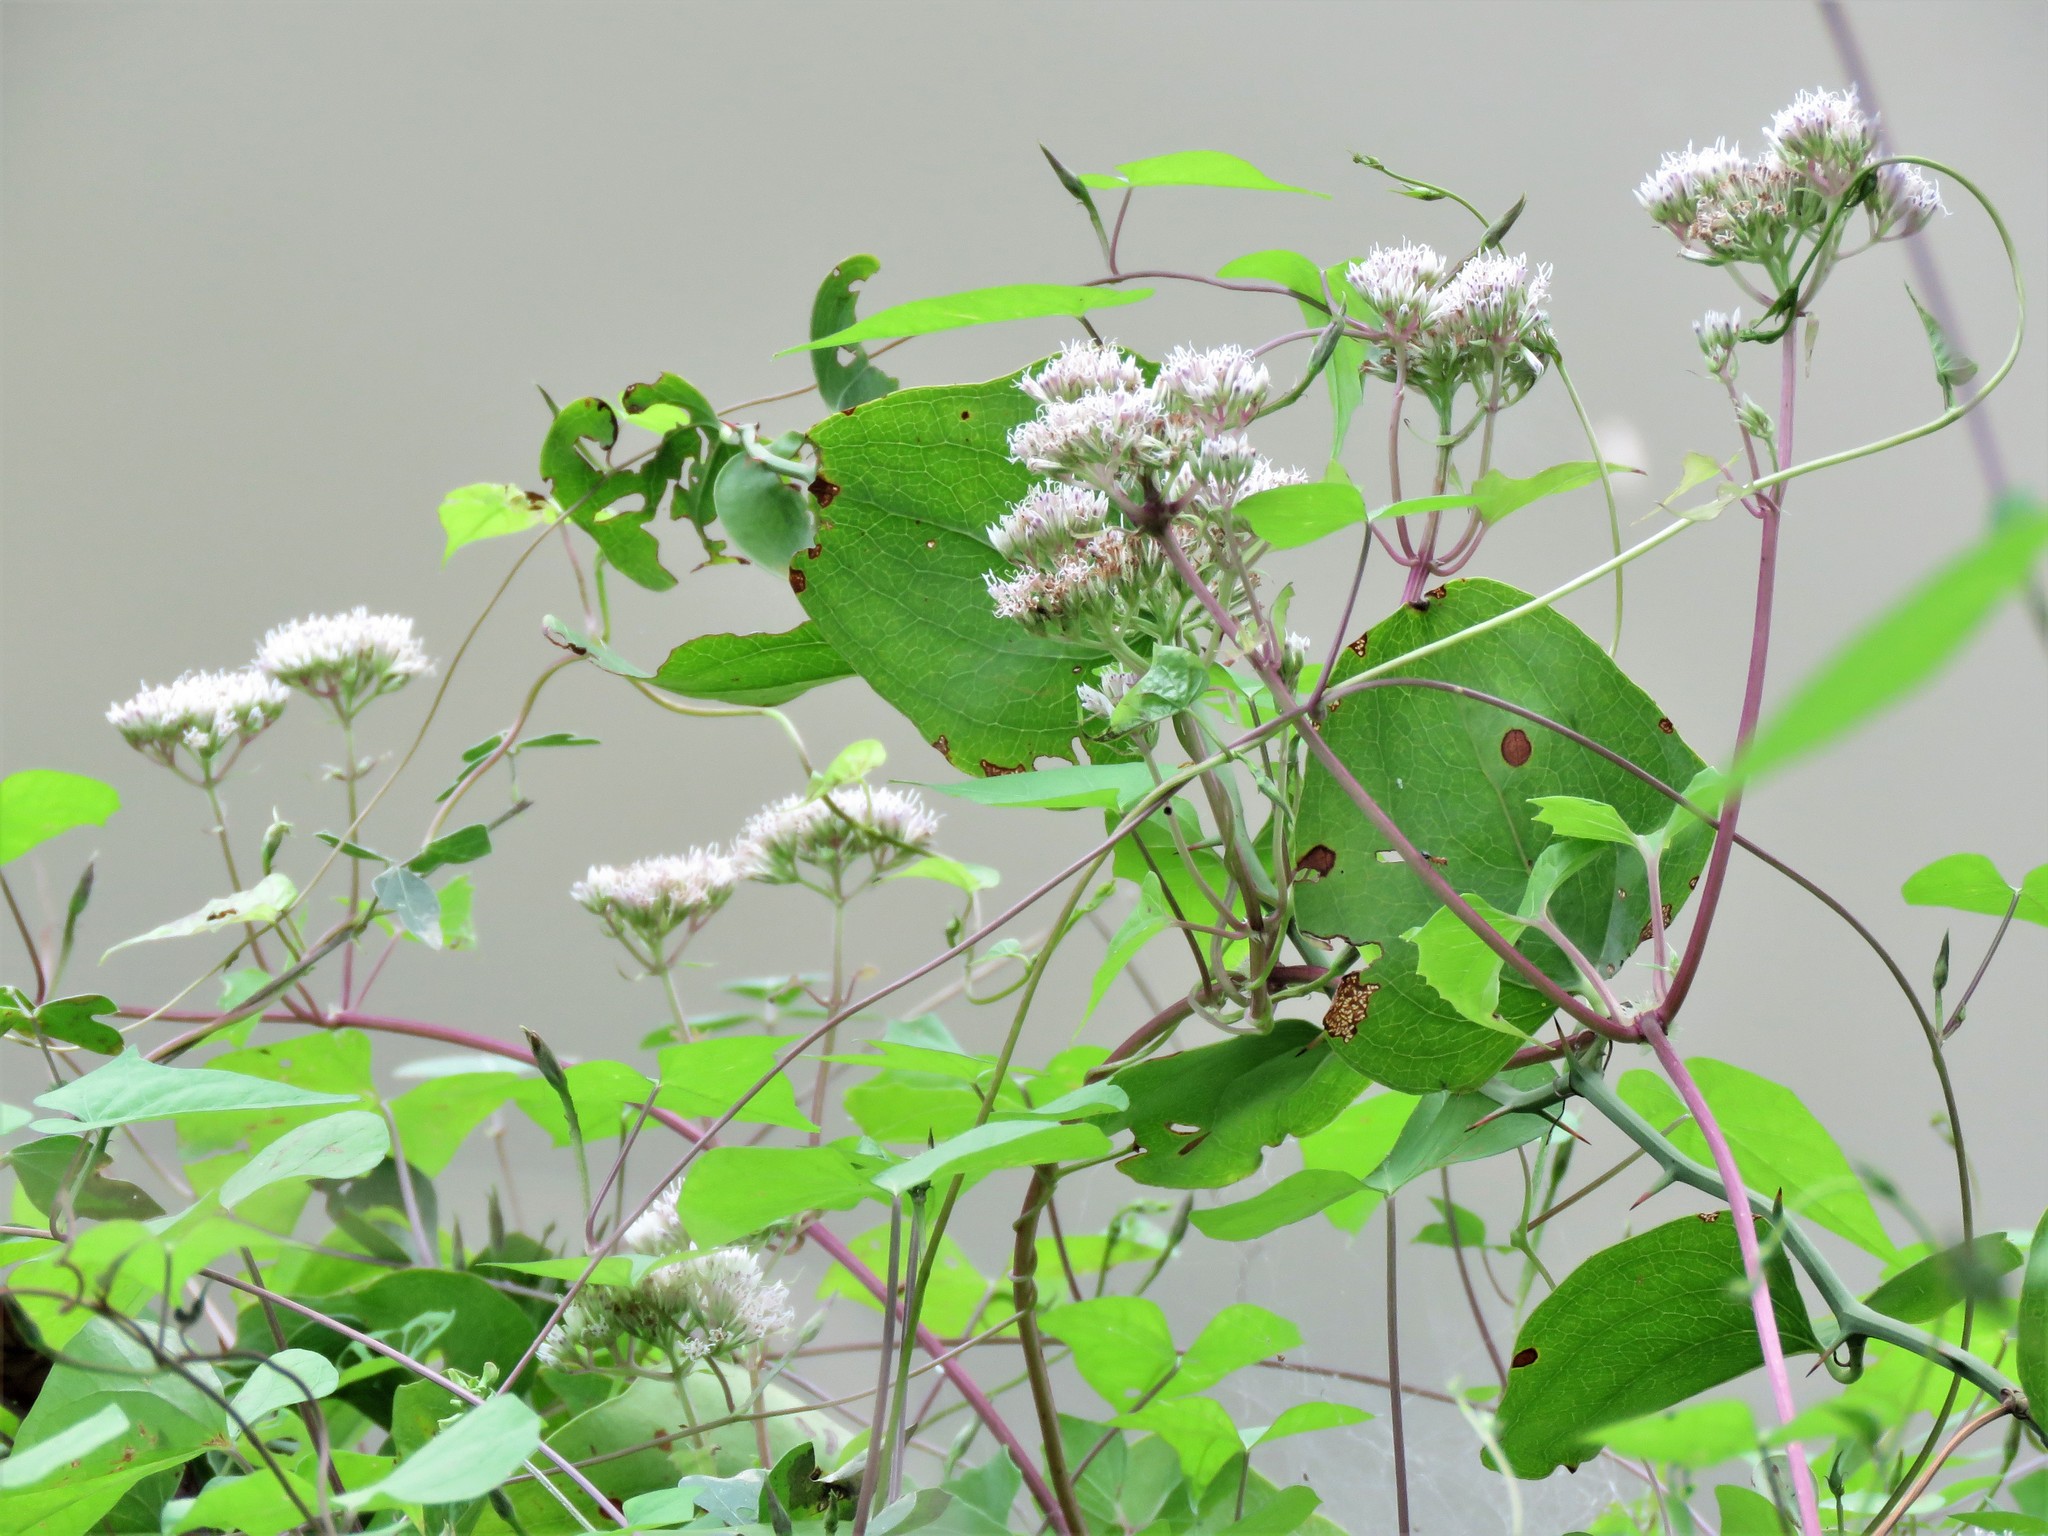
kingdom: Plantae
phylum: Tracheophyta
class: Magnoliopsida
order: Asterales
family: Asteraceae
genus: Mikania
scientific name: Mikania scandens
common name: Climbing hempvine
